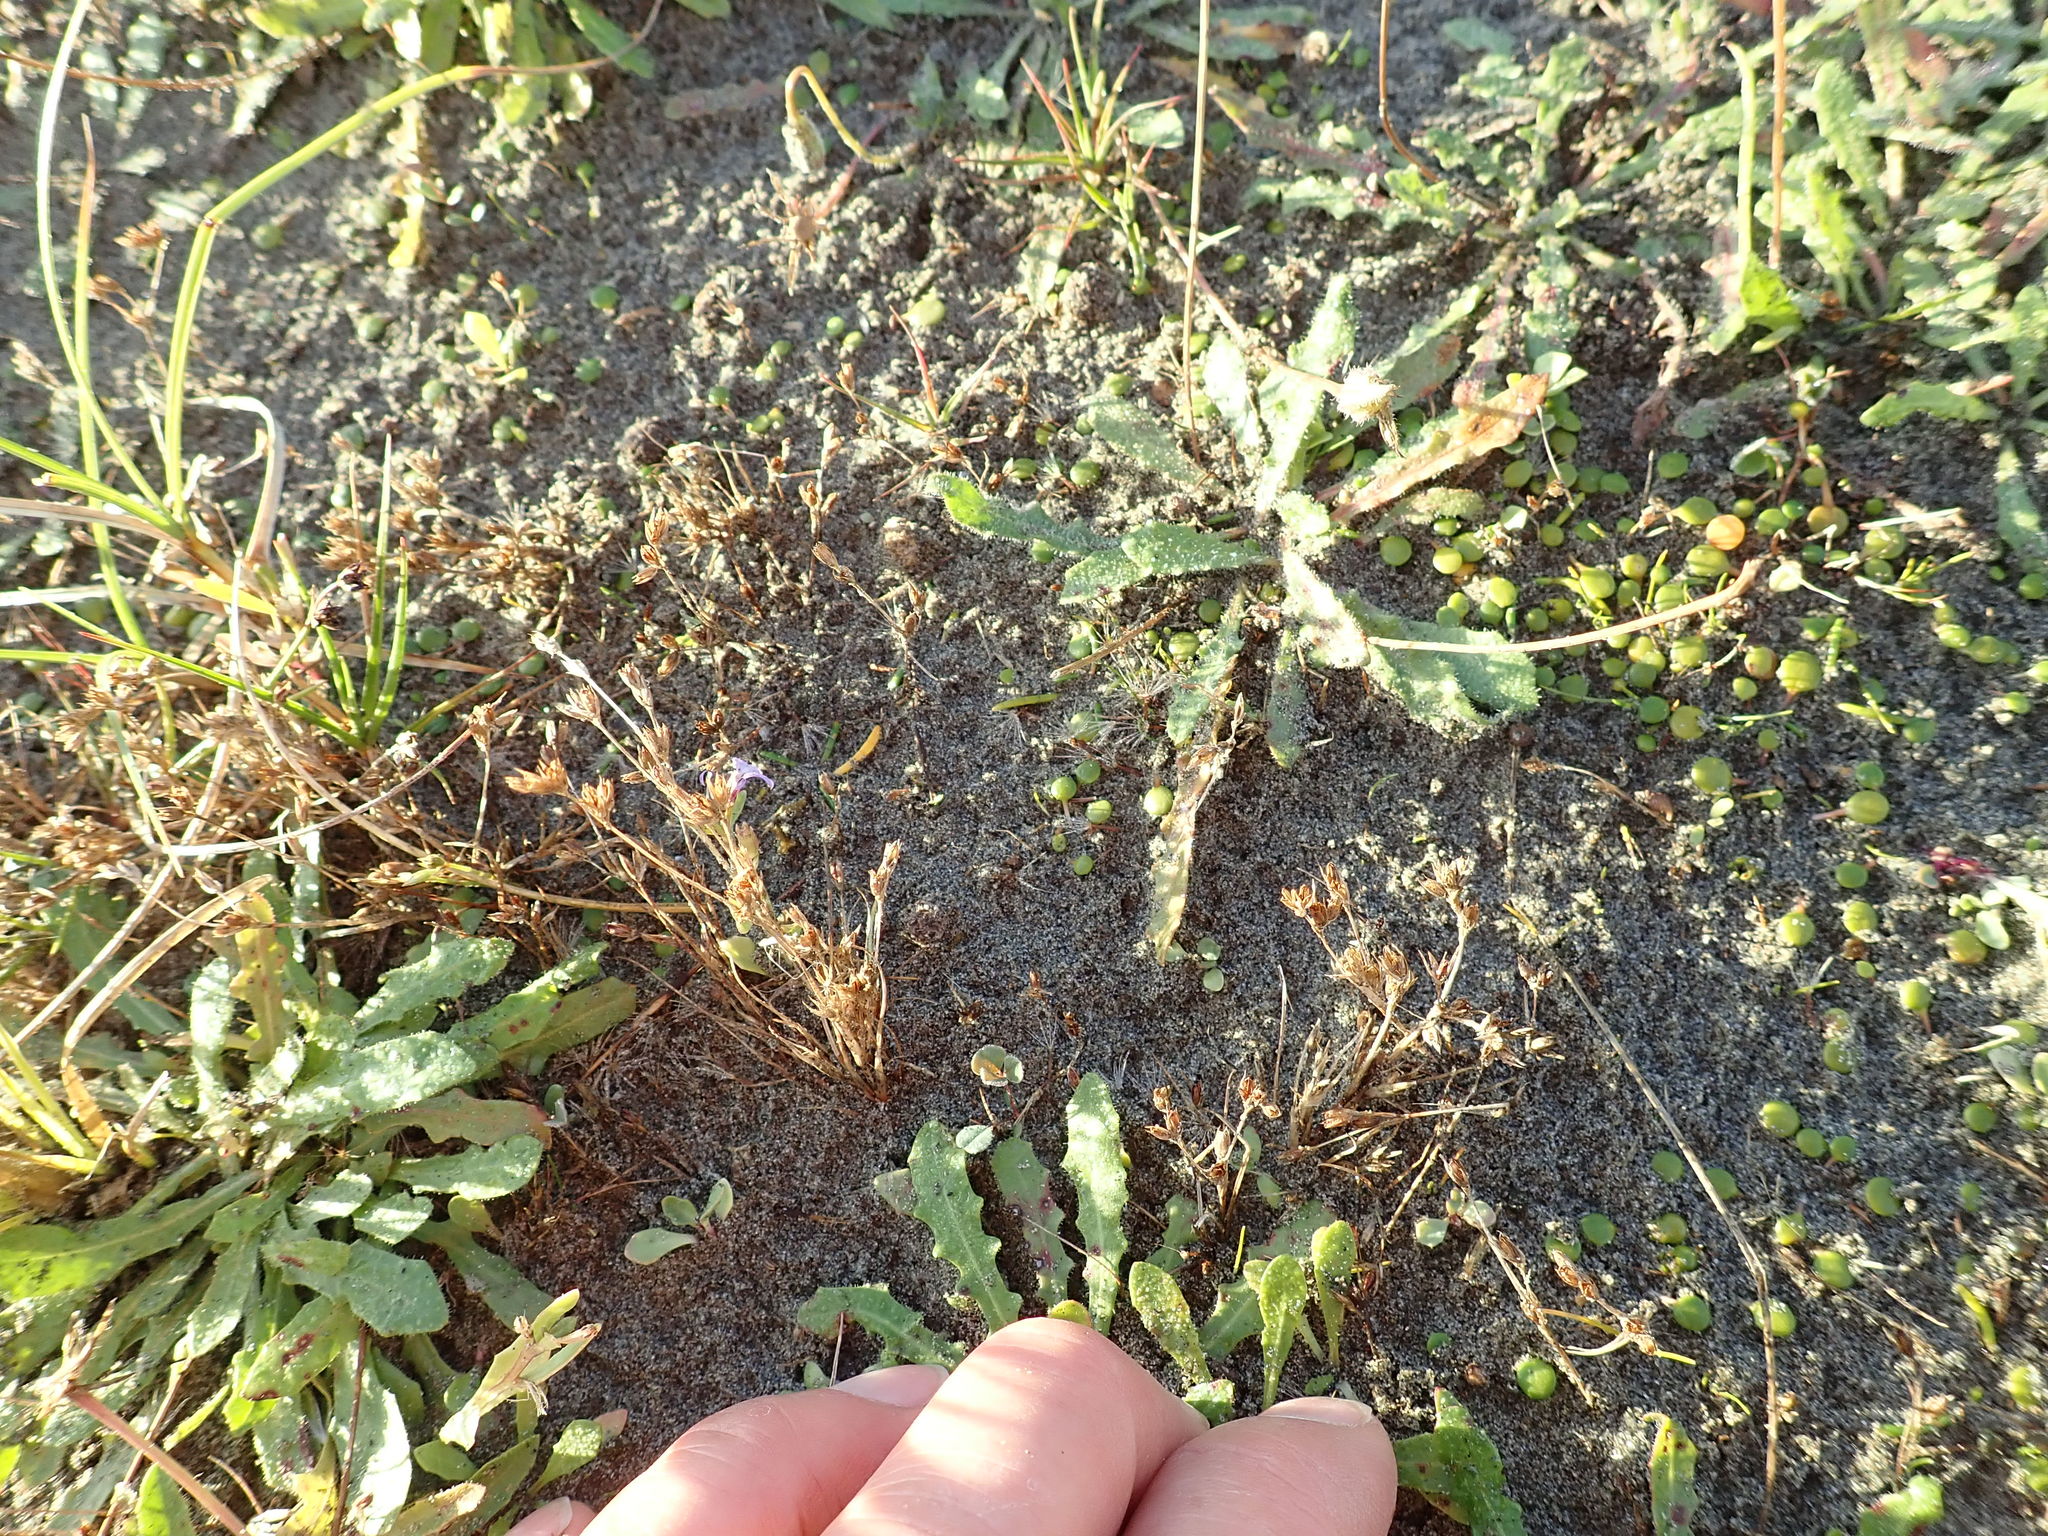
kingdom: Plantae
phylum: Tracheophyta
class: Liliopsida
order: Poales
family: Juncaceae
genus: Juncus
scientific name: Juncus bufonius
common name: Toad rush
